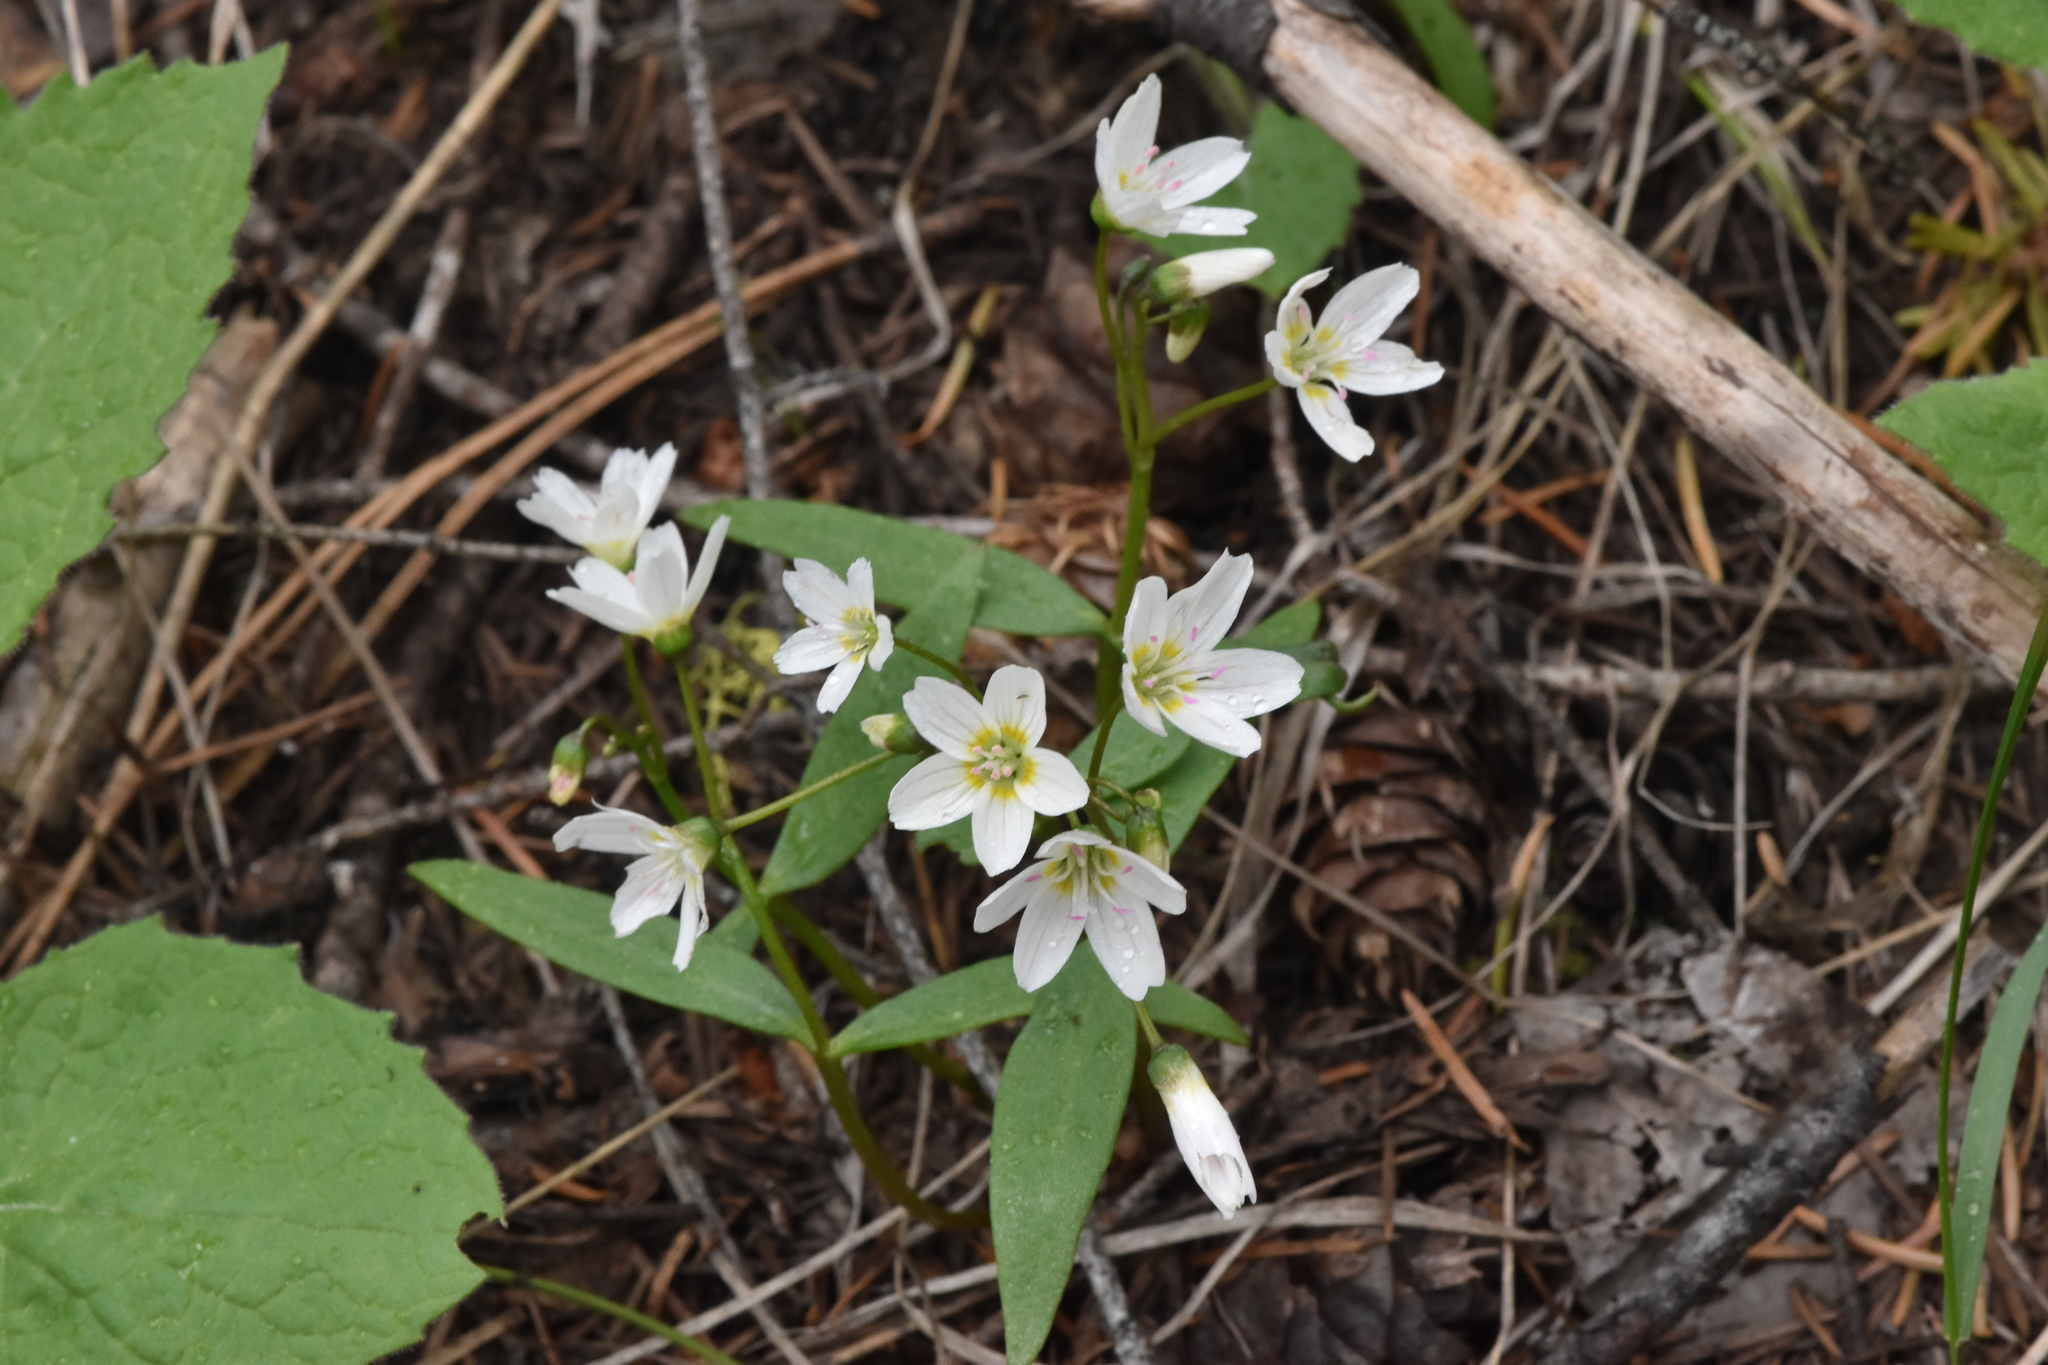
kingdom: Plantae
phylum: Tracheophyta
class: Magnoliopsida
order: Caryophyllales
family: Montiaceae
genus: Claytonia
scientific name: Claytonia lanceolata
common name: Western spring-beauty
